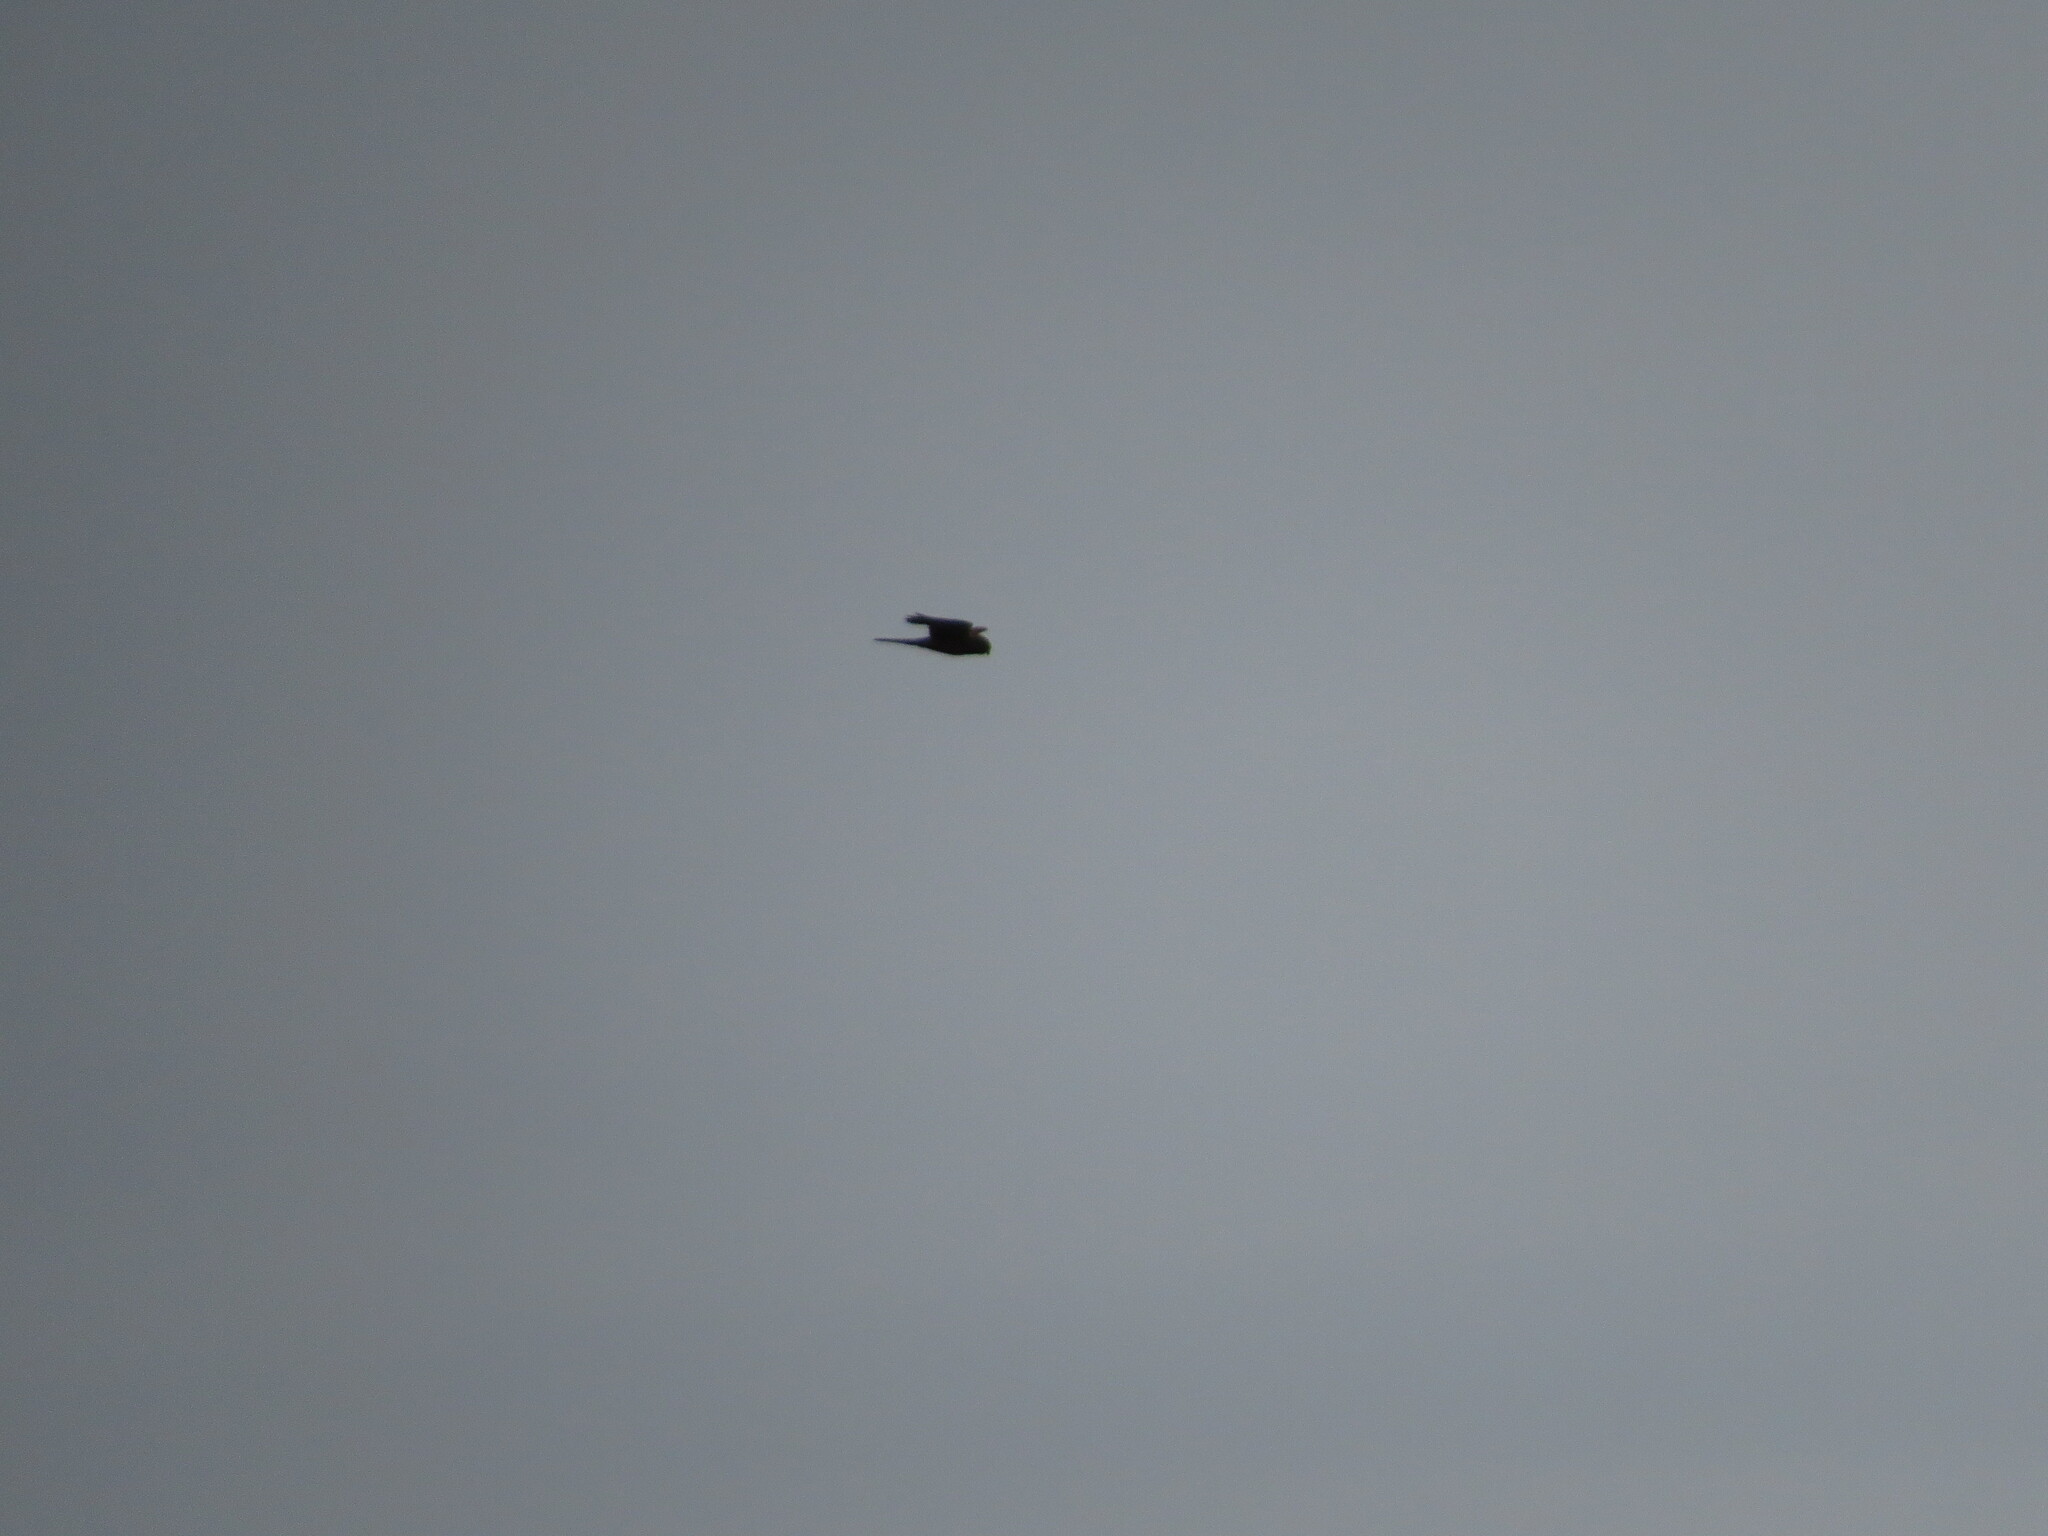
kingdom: Animalia
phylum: Chordata
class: Aves
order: Falconiformes
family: Falconidae
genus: Falco
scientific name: Falco tinnunculus
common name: Common kestrel
